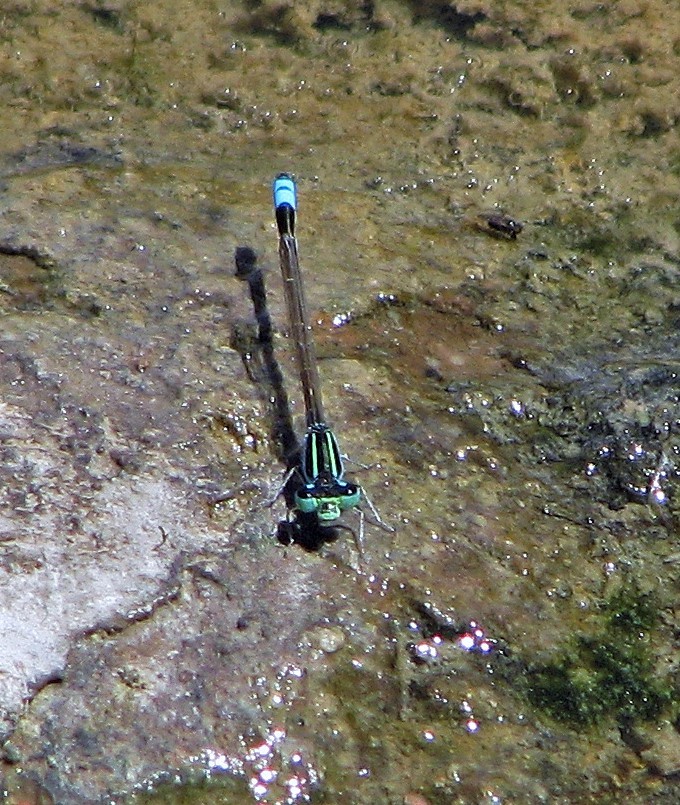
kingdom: Animalia
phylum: Arthropoda
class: Insecta
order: Odonata
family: Coenagrionidae
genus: Ischnura
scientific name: Ischnura fluviatilis
